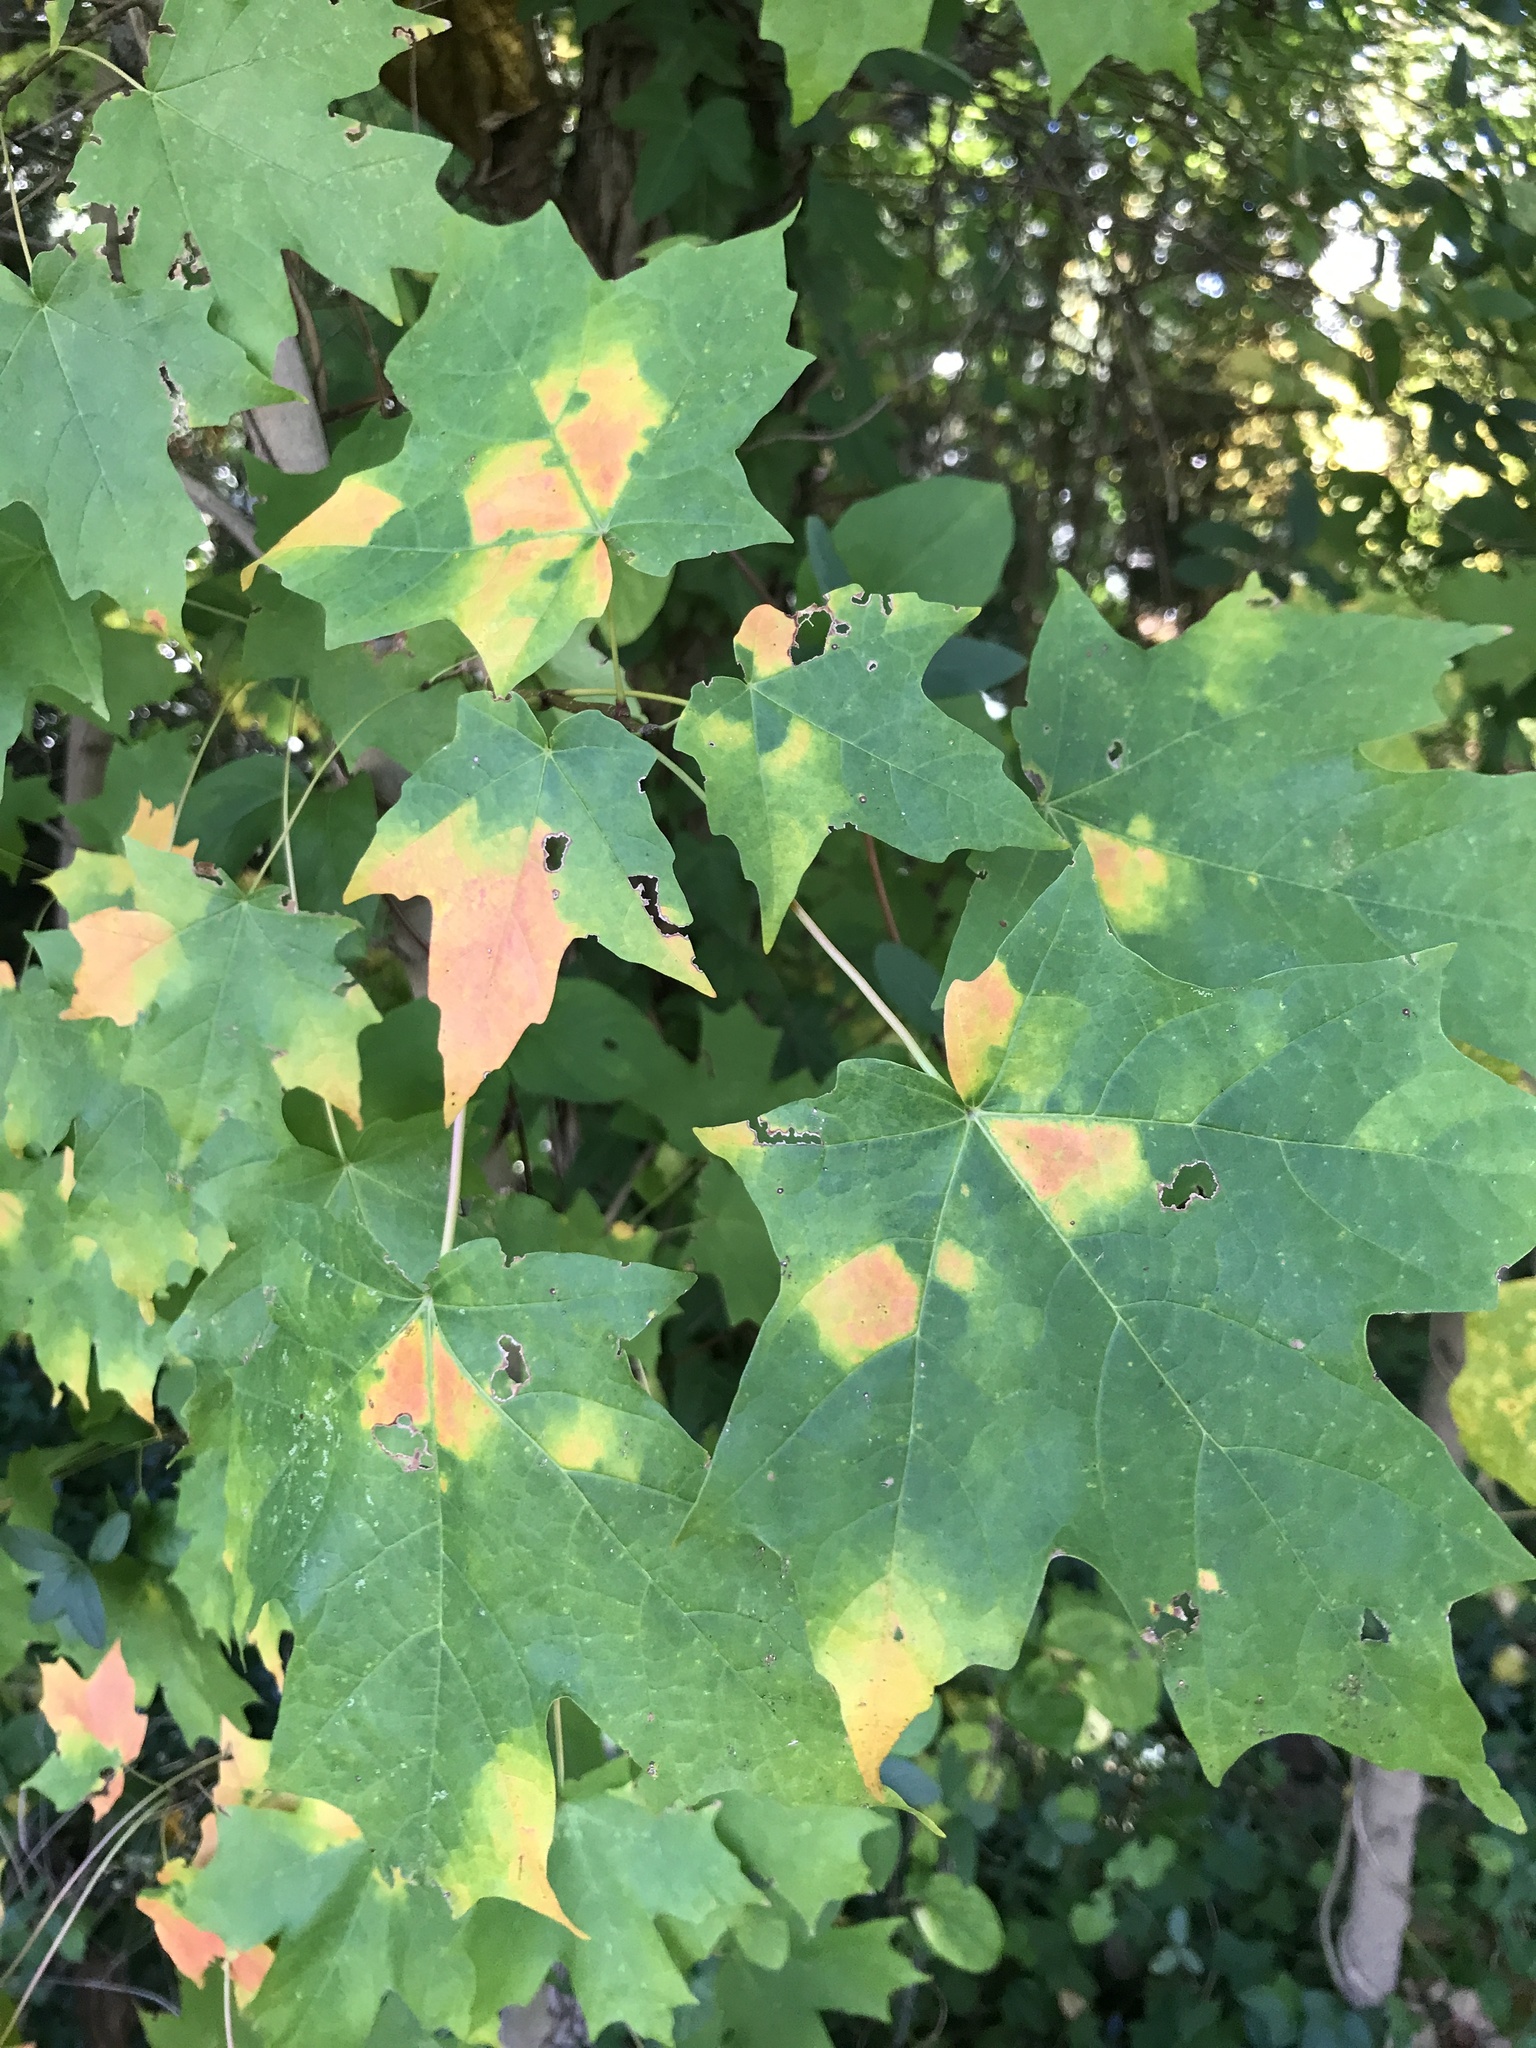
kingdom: Plantae
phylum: Tracheophyta
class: Magnoliopsida
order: Sapindales
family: Sapindaceae
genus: Acer
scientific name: Acer saccharum
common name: Sugar maple
